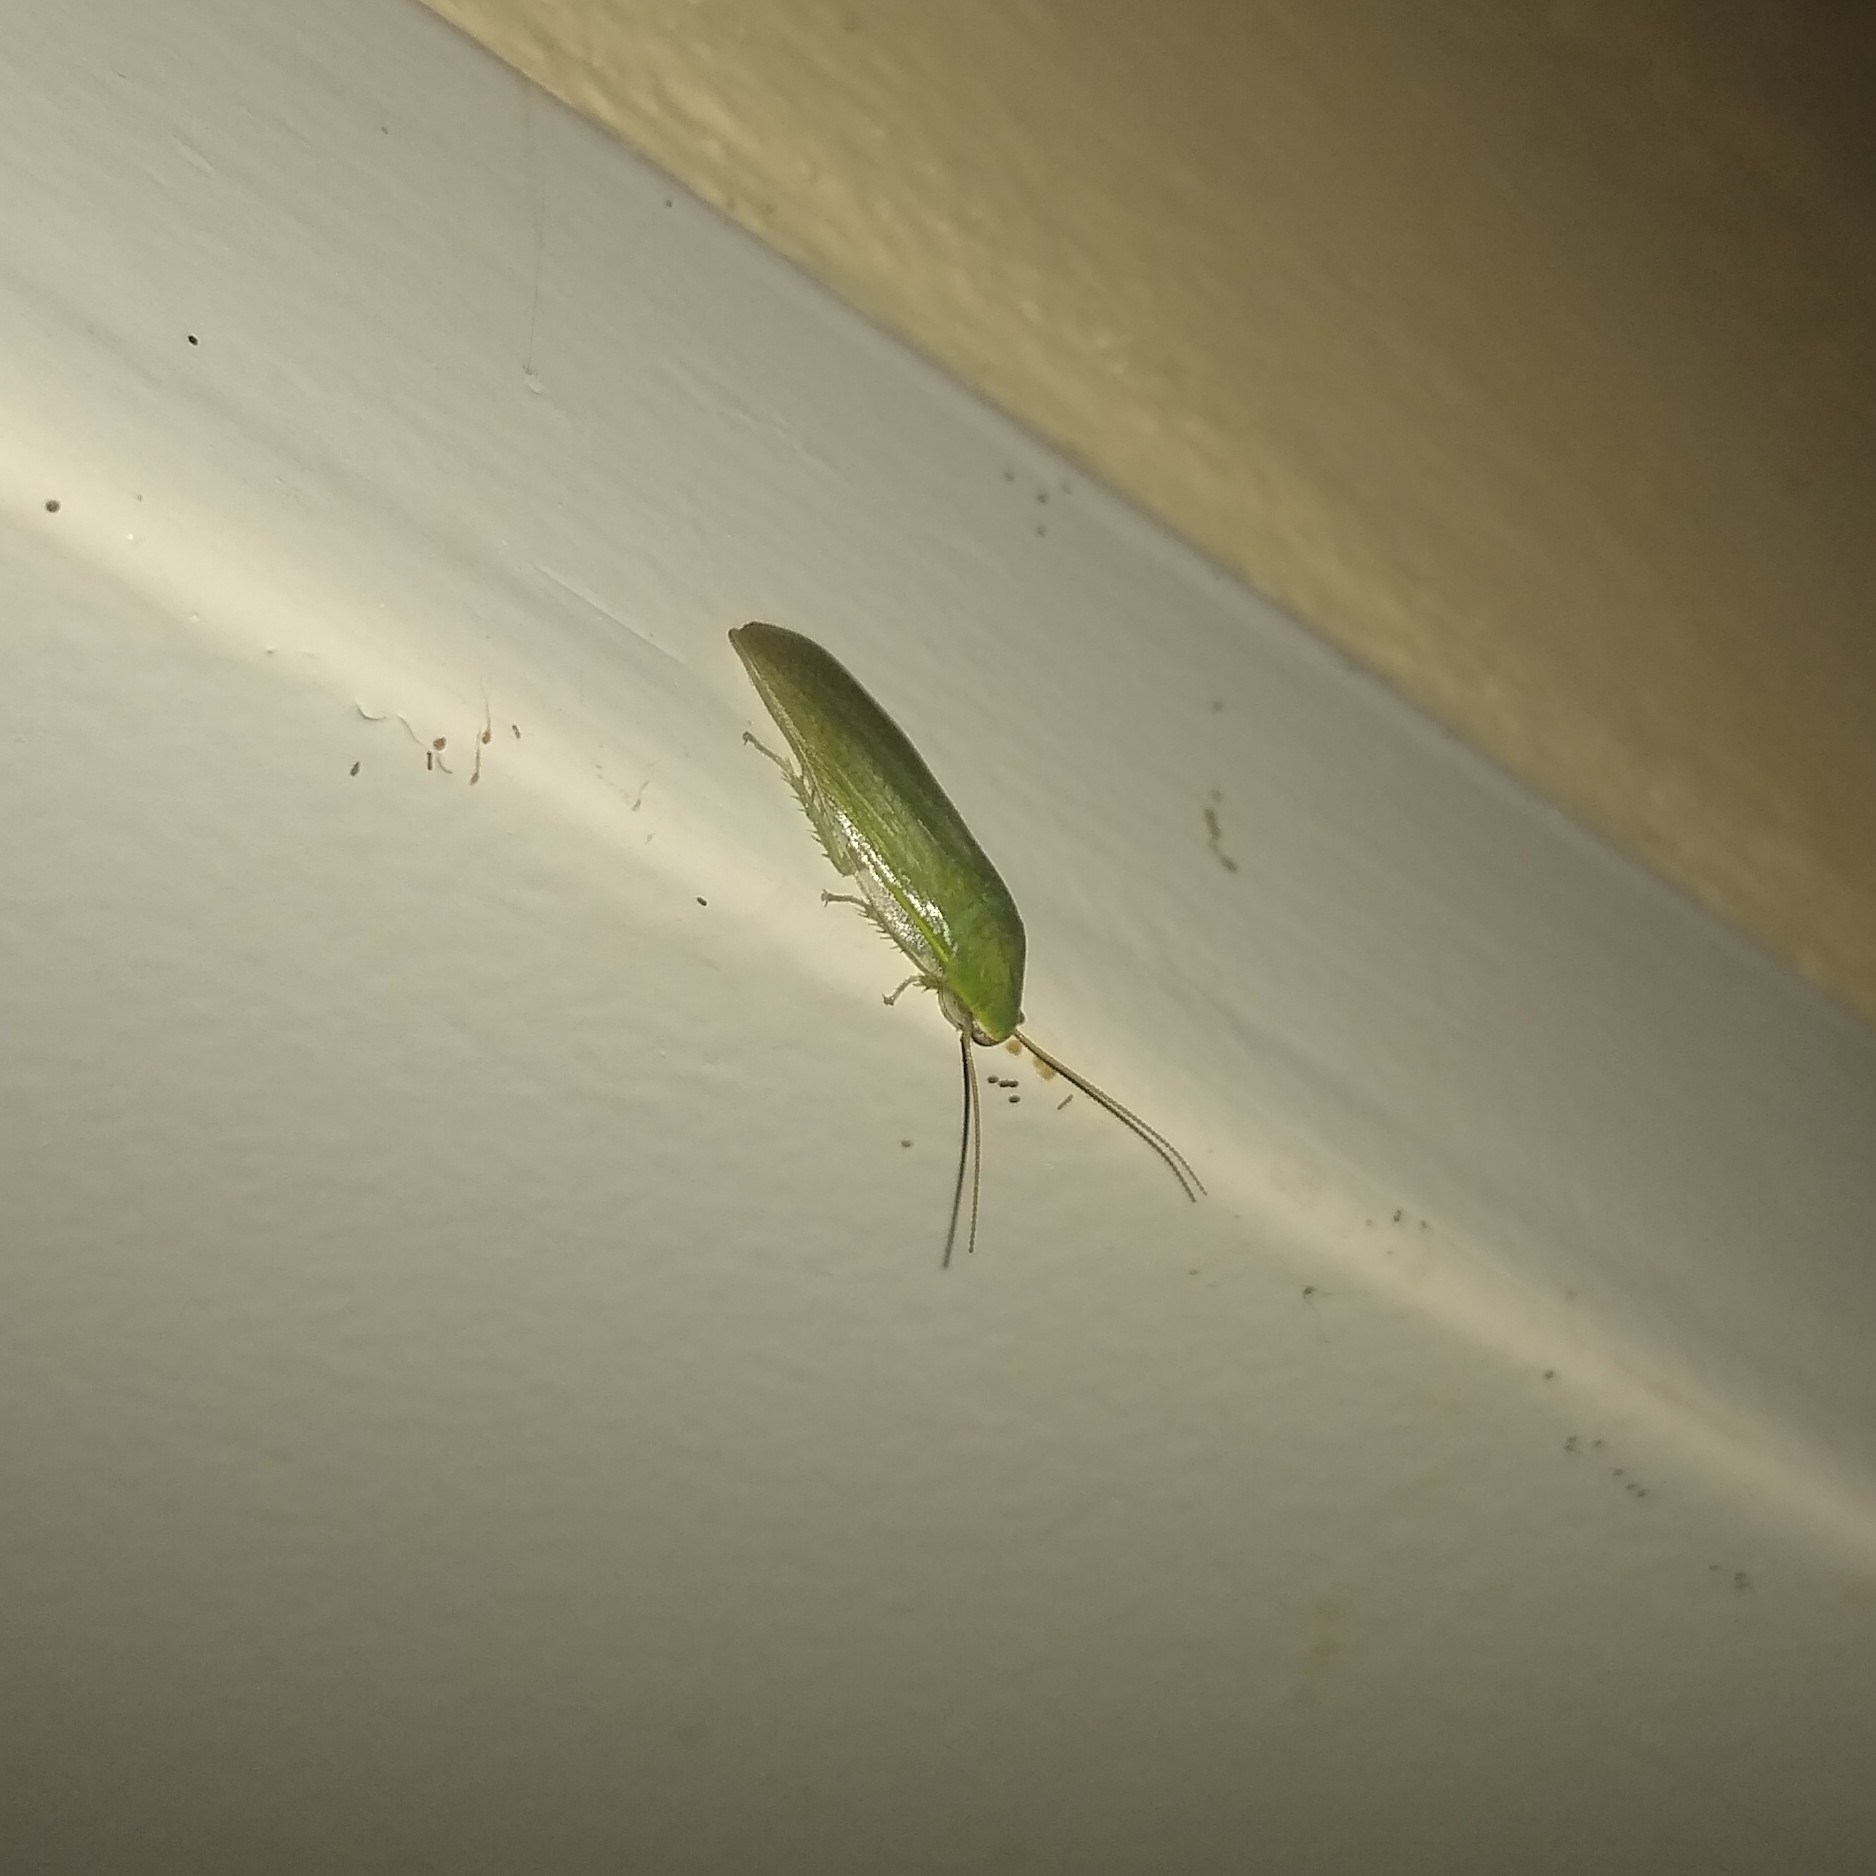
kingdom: Animalia
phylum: Arthropoda
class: Insecta
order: Blattodea
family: Blaberidae
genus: Panchlora
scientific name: Panchlora thalassina
